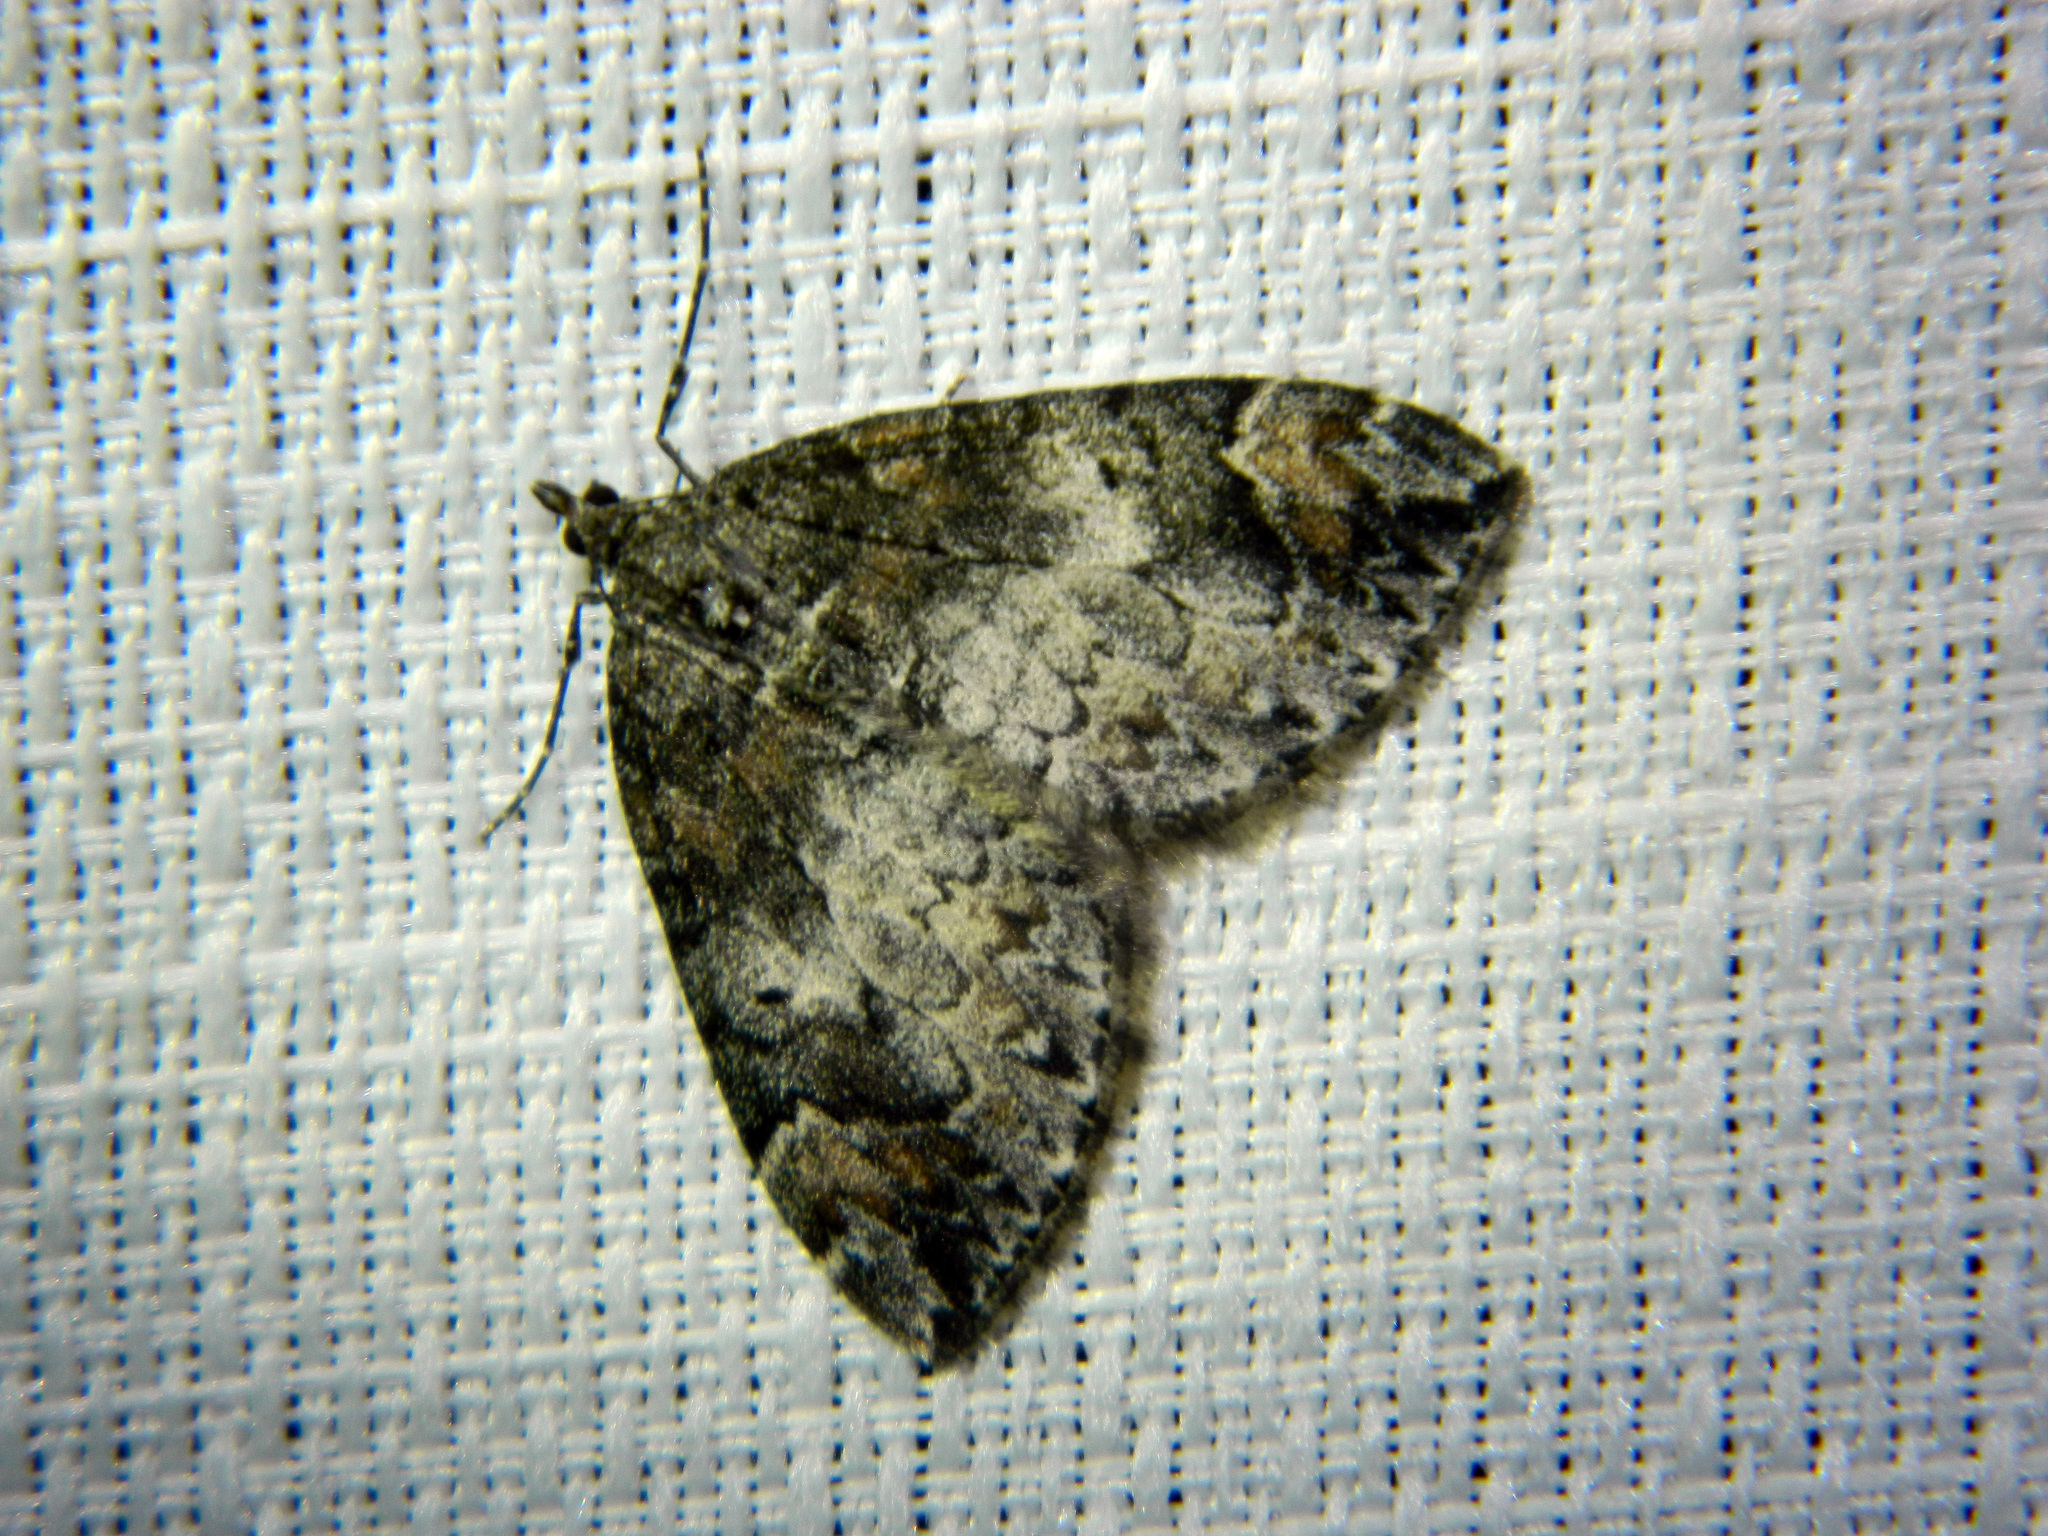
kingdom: Animalia
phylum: Arthropoda
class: Insecta
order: Lepidoptera
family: Geometridae
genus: Dysstroma
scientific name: Dysstroma citrata
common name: Dark marbled carpet
